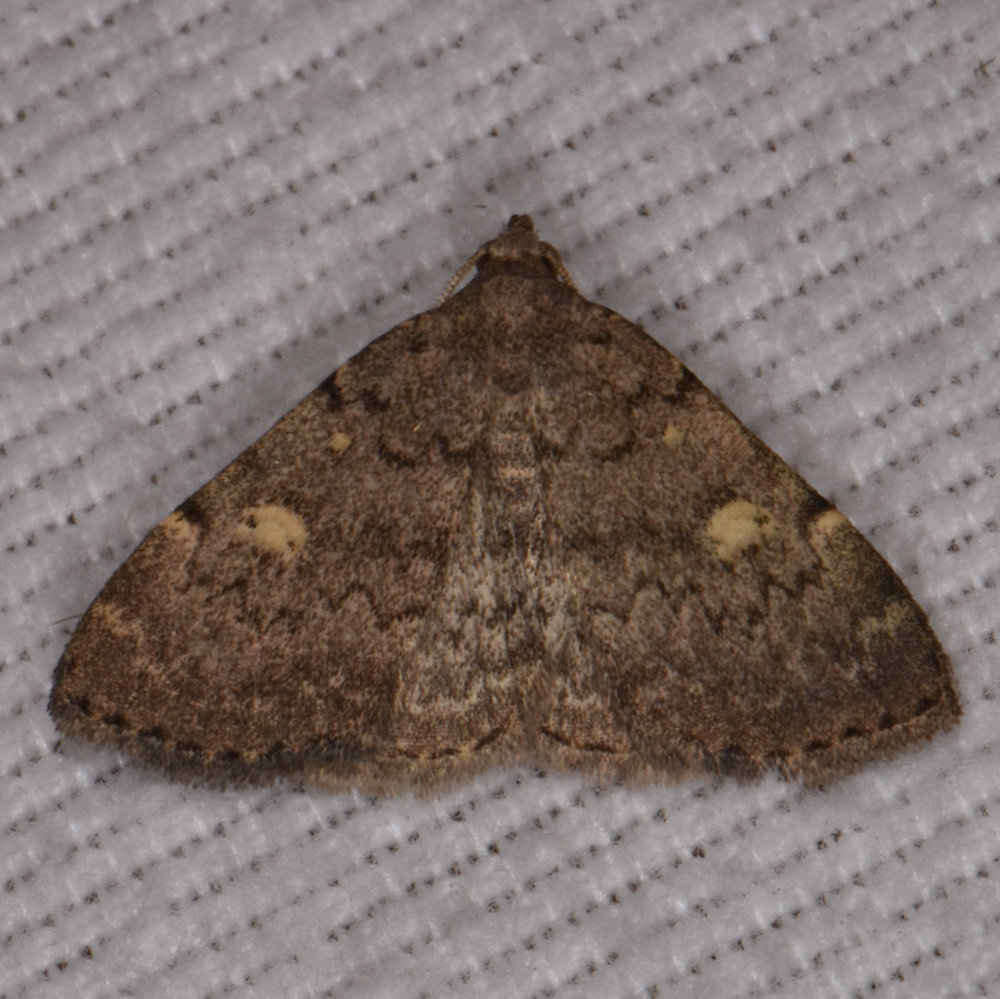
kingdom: Animalia
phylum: Arthropoda
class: Insecta
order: Lepidoptera
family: Erebidae
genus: Idia
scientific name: Idia aemula
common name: Common idia moth
